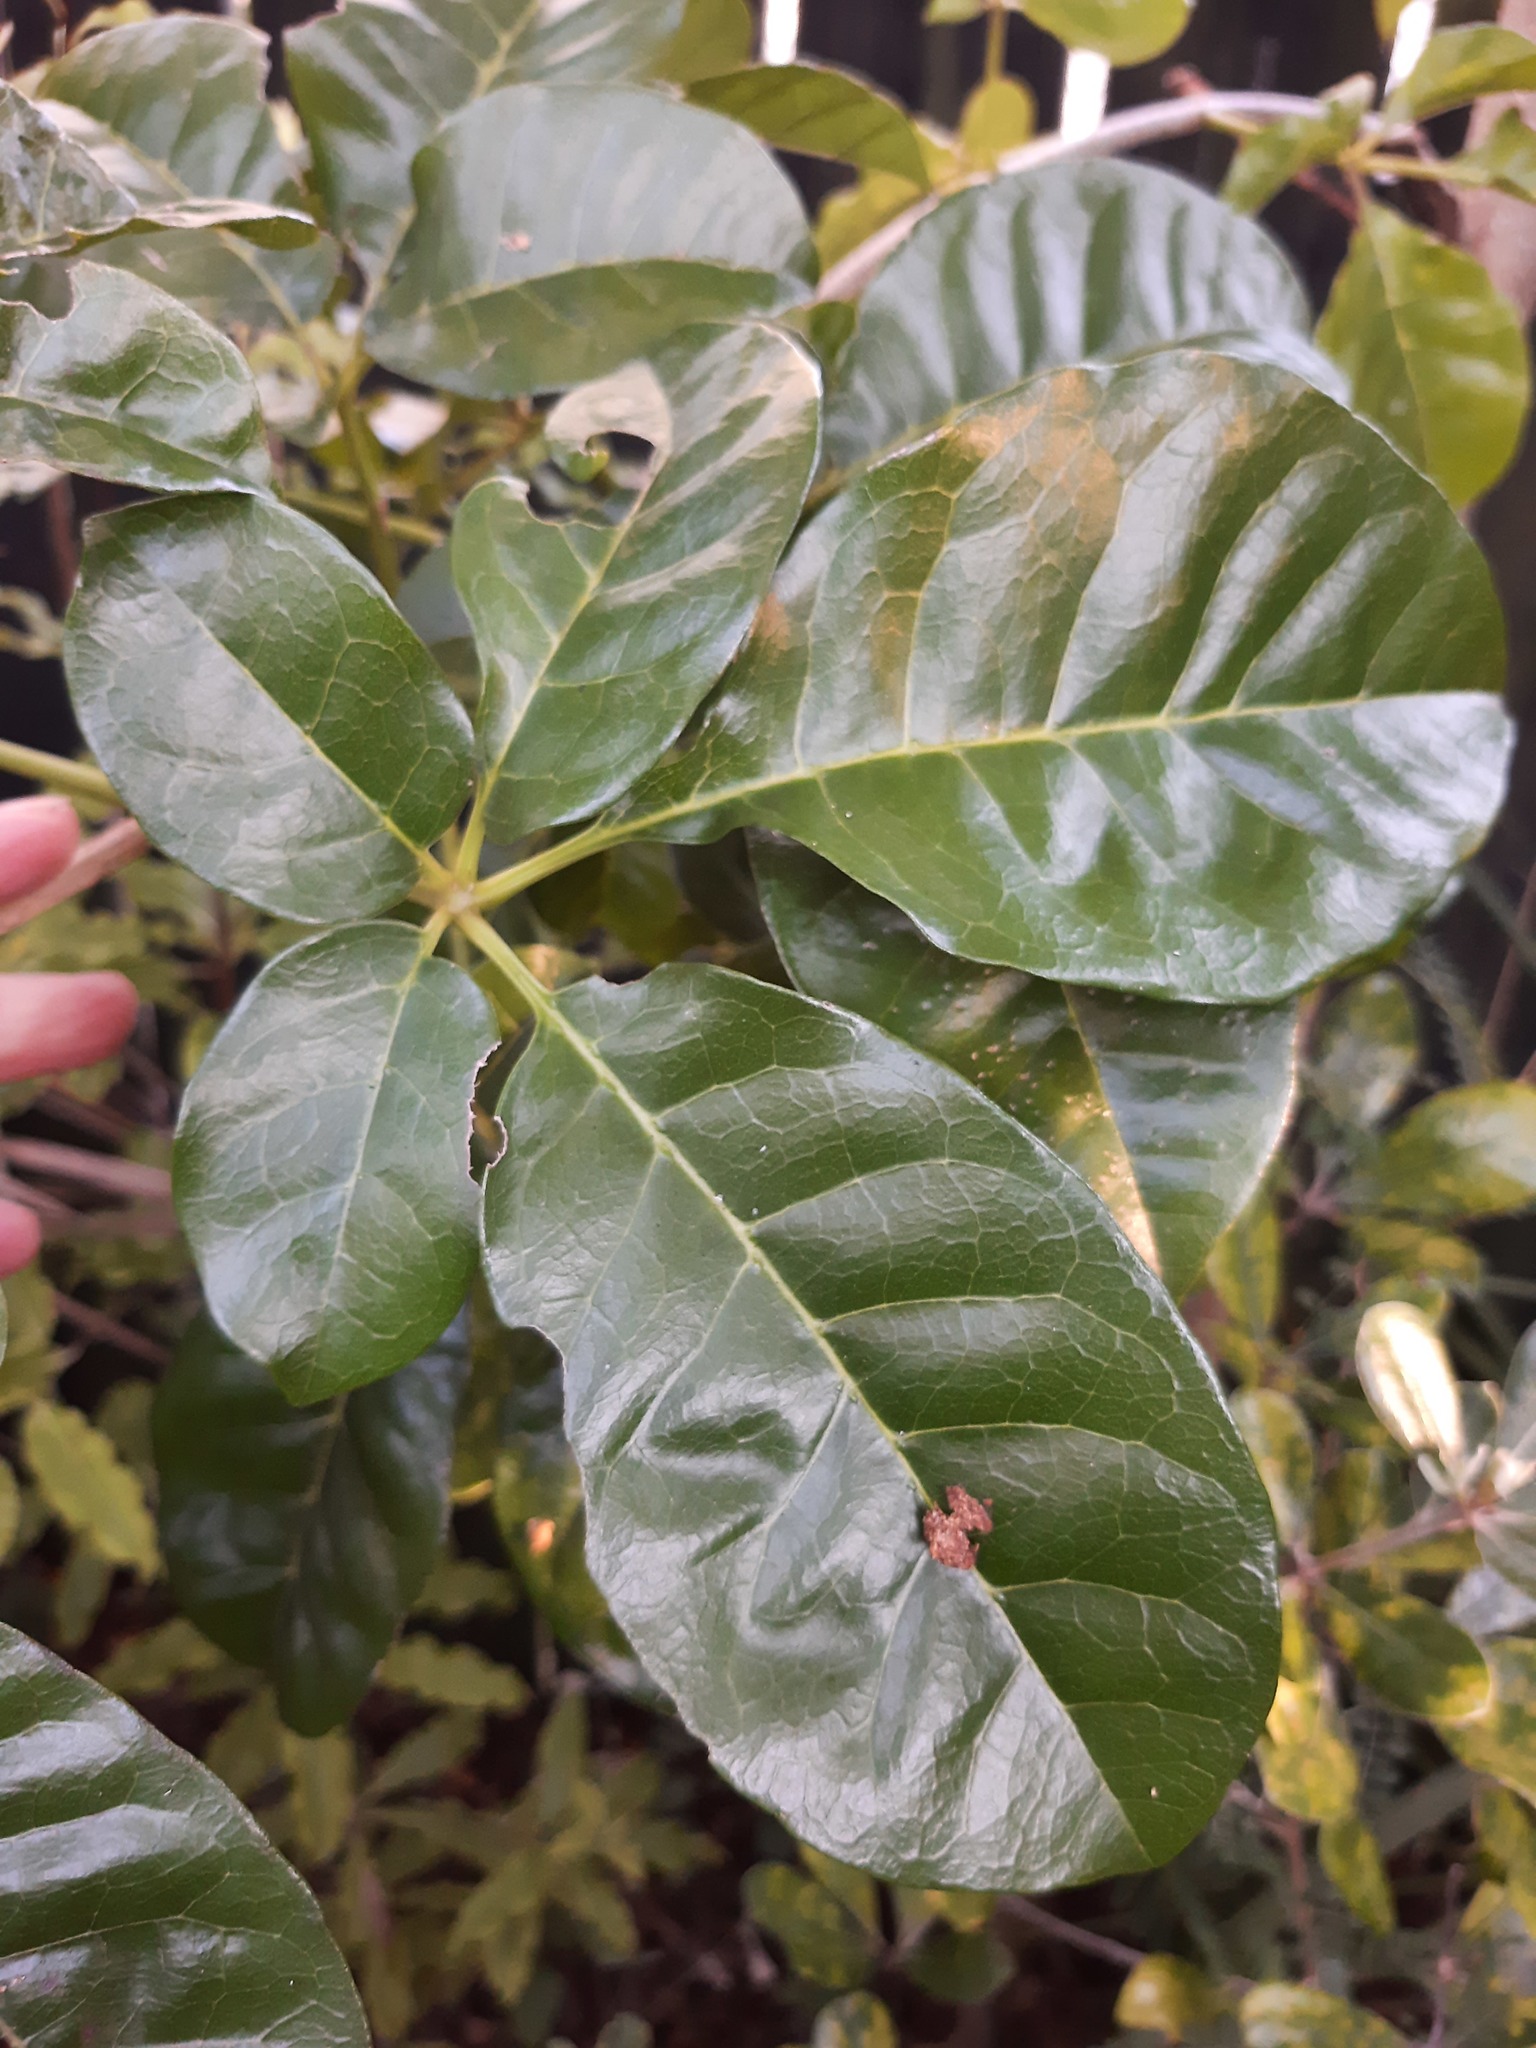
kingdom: Plantae
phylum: Tracheophyta
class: Magnoliopsida
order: Lamiales
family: Lamiaceae
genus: Vitex
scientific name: Vitex lucens
